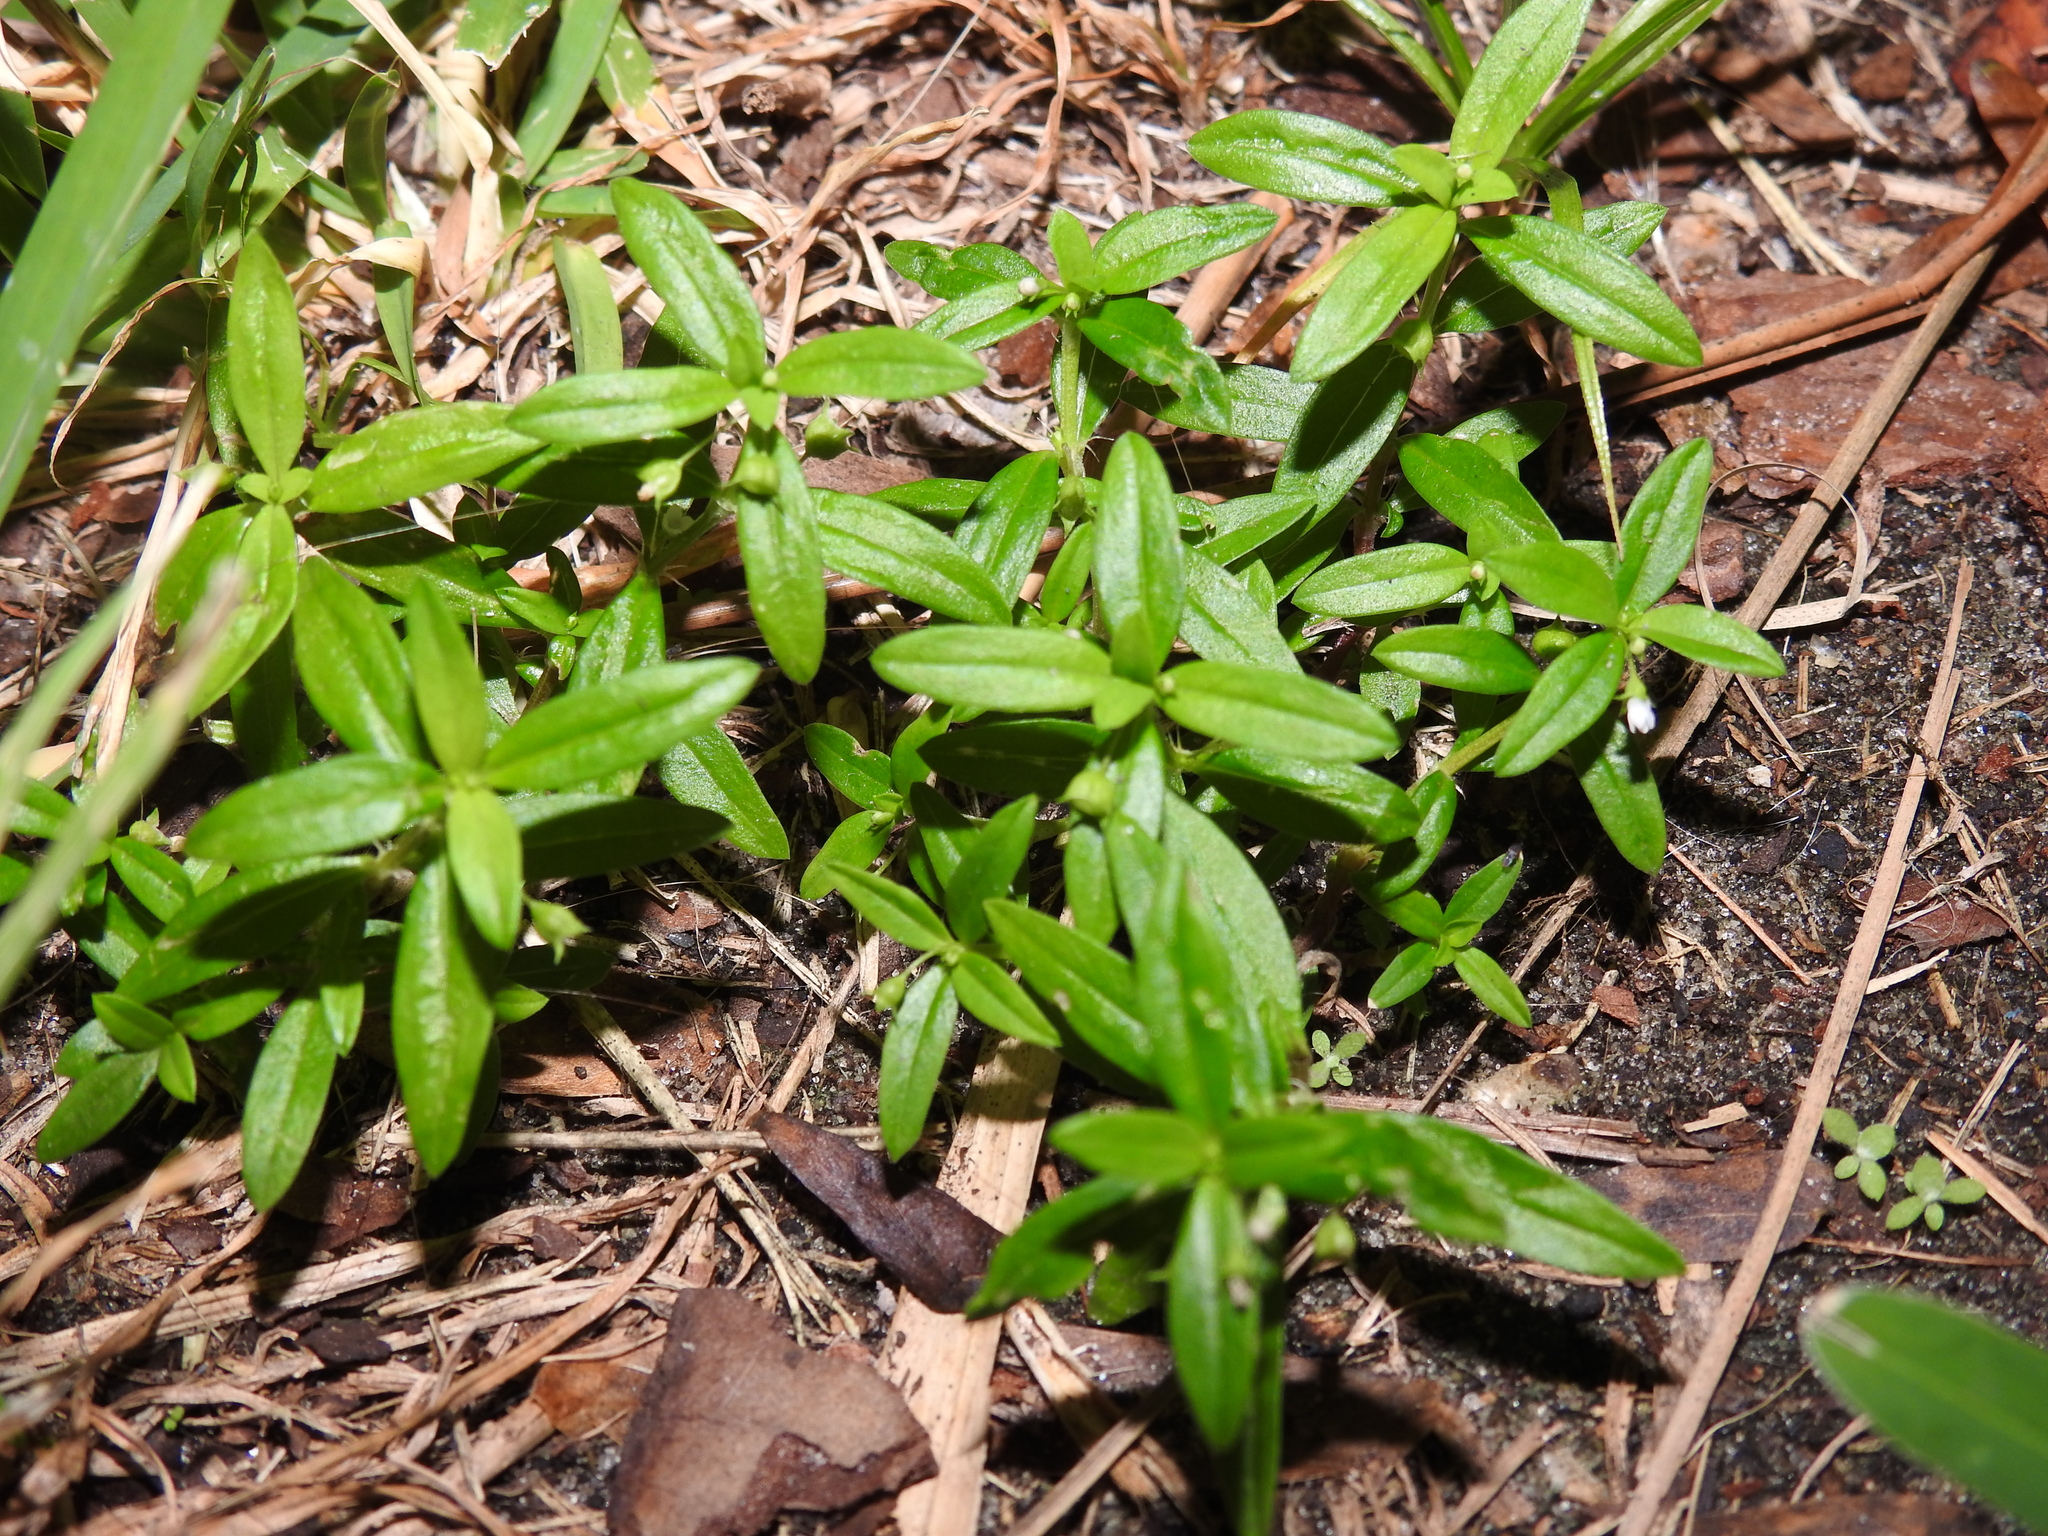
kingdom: Plantae
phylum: Tracheophyta
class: Magnoliopsida
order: Gentianales
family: Rubiaceae
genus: Oldenlandia
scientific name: Oldenlandia corymbosa
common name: Flat-top mille graines
